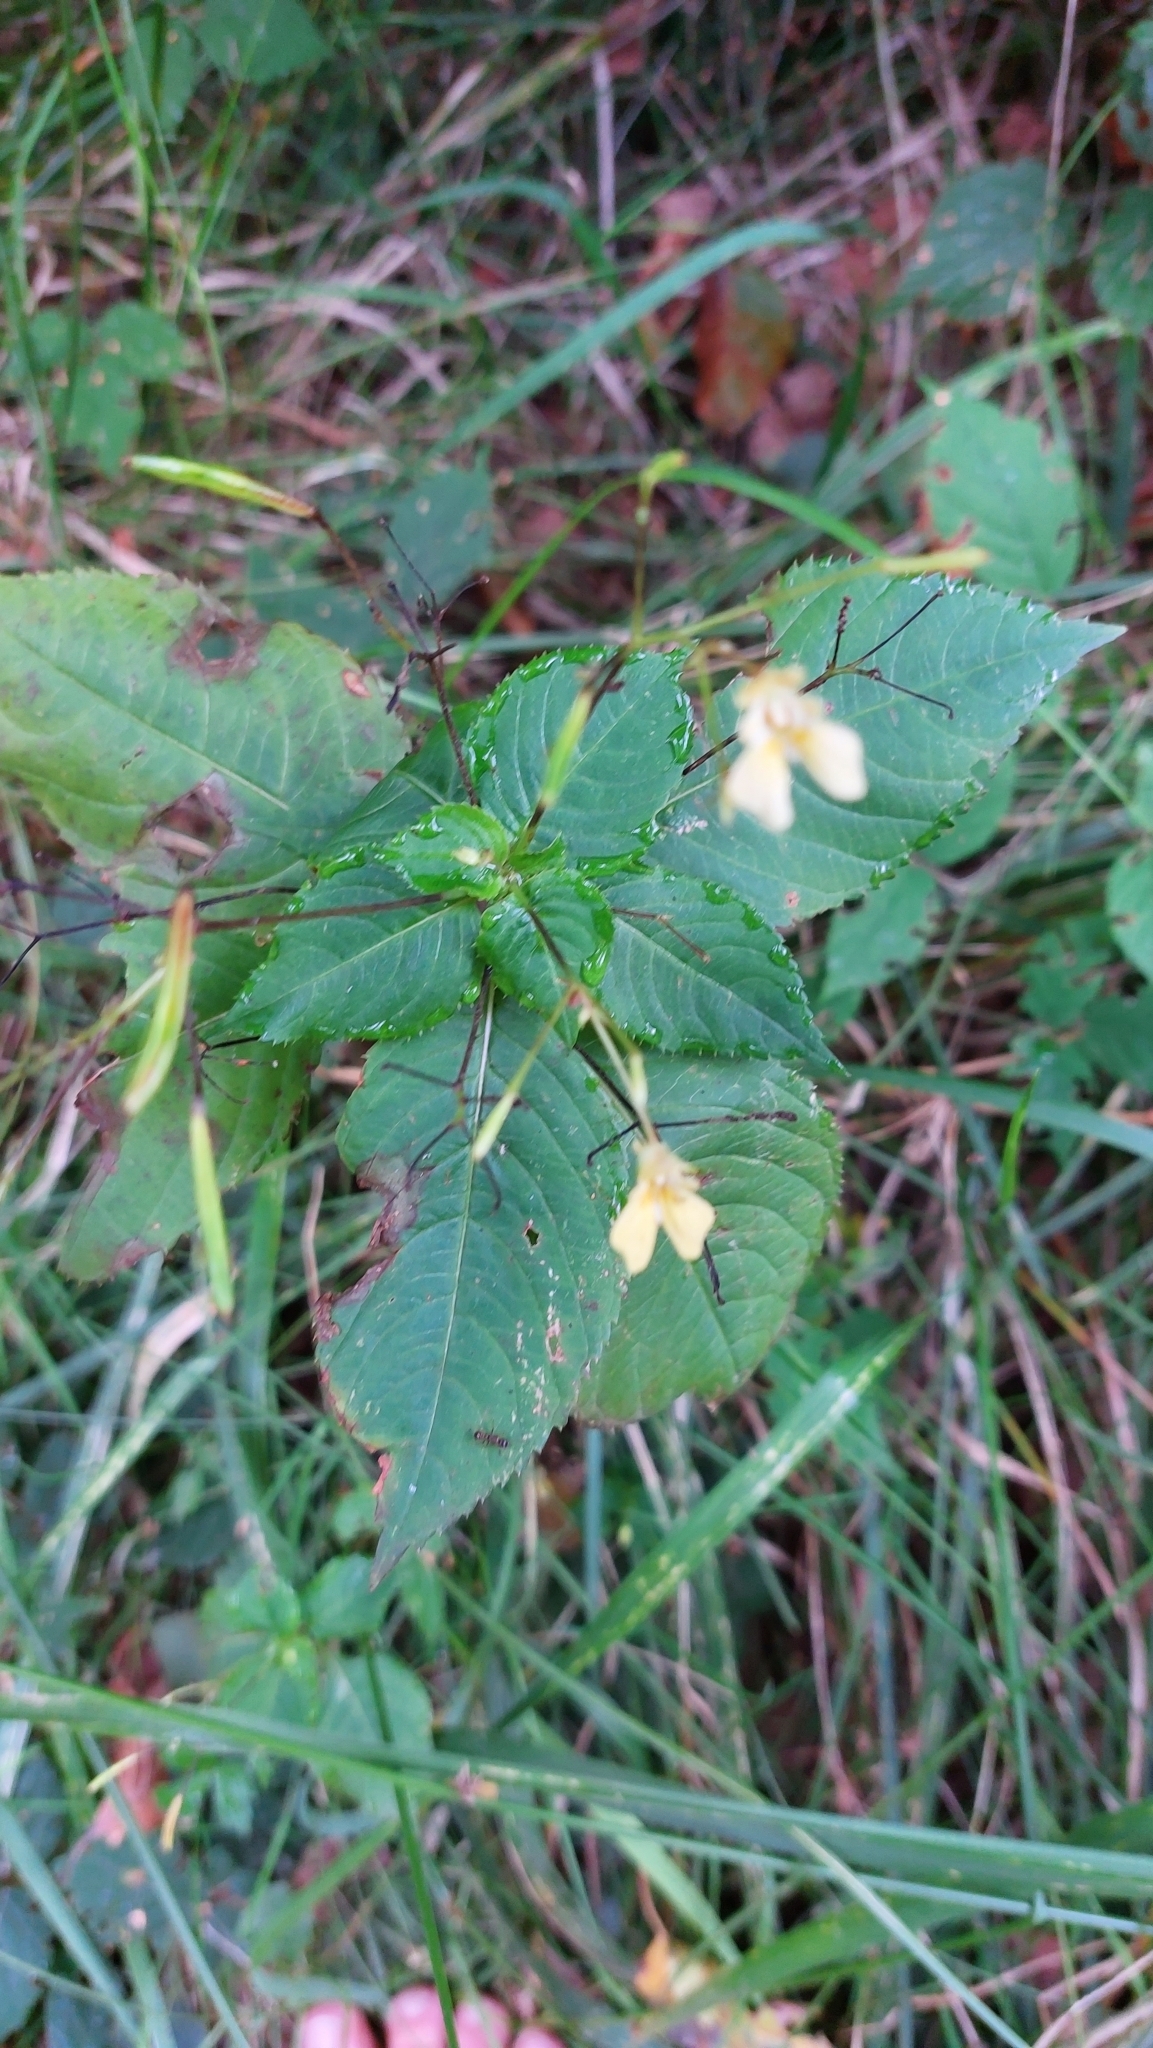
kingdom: Plantae
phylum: Tracheophyta
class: Magnoliopsida
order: Ericales
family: Balsaminaceae
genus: Impatiens
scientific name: Impatiens parviflora
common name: Small balsam
